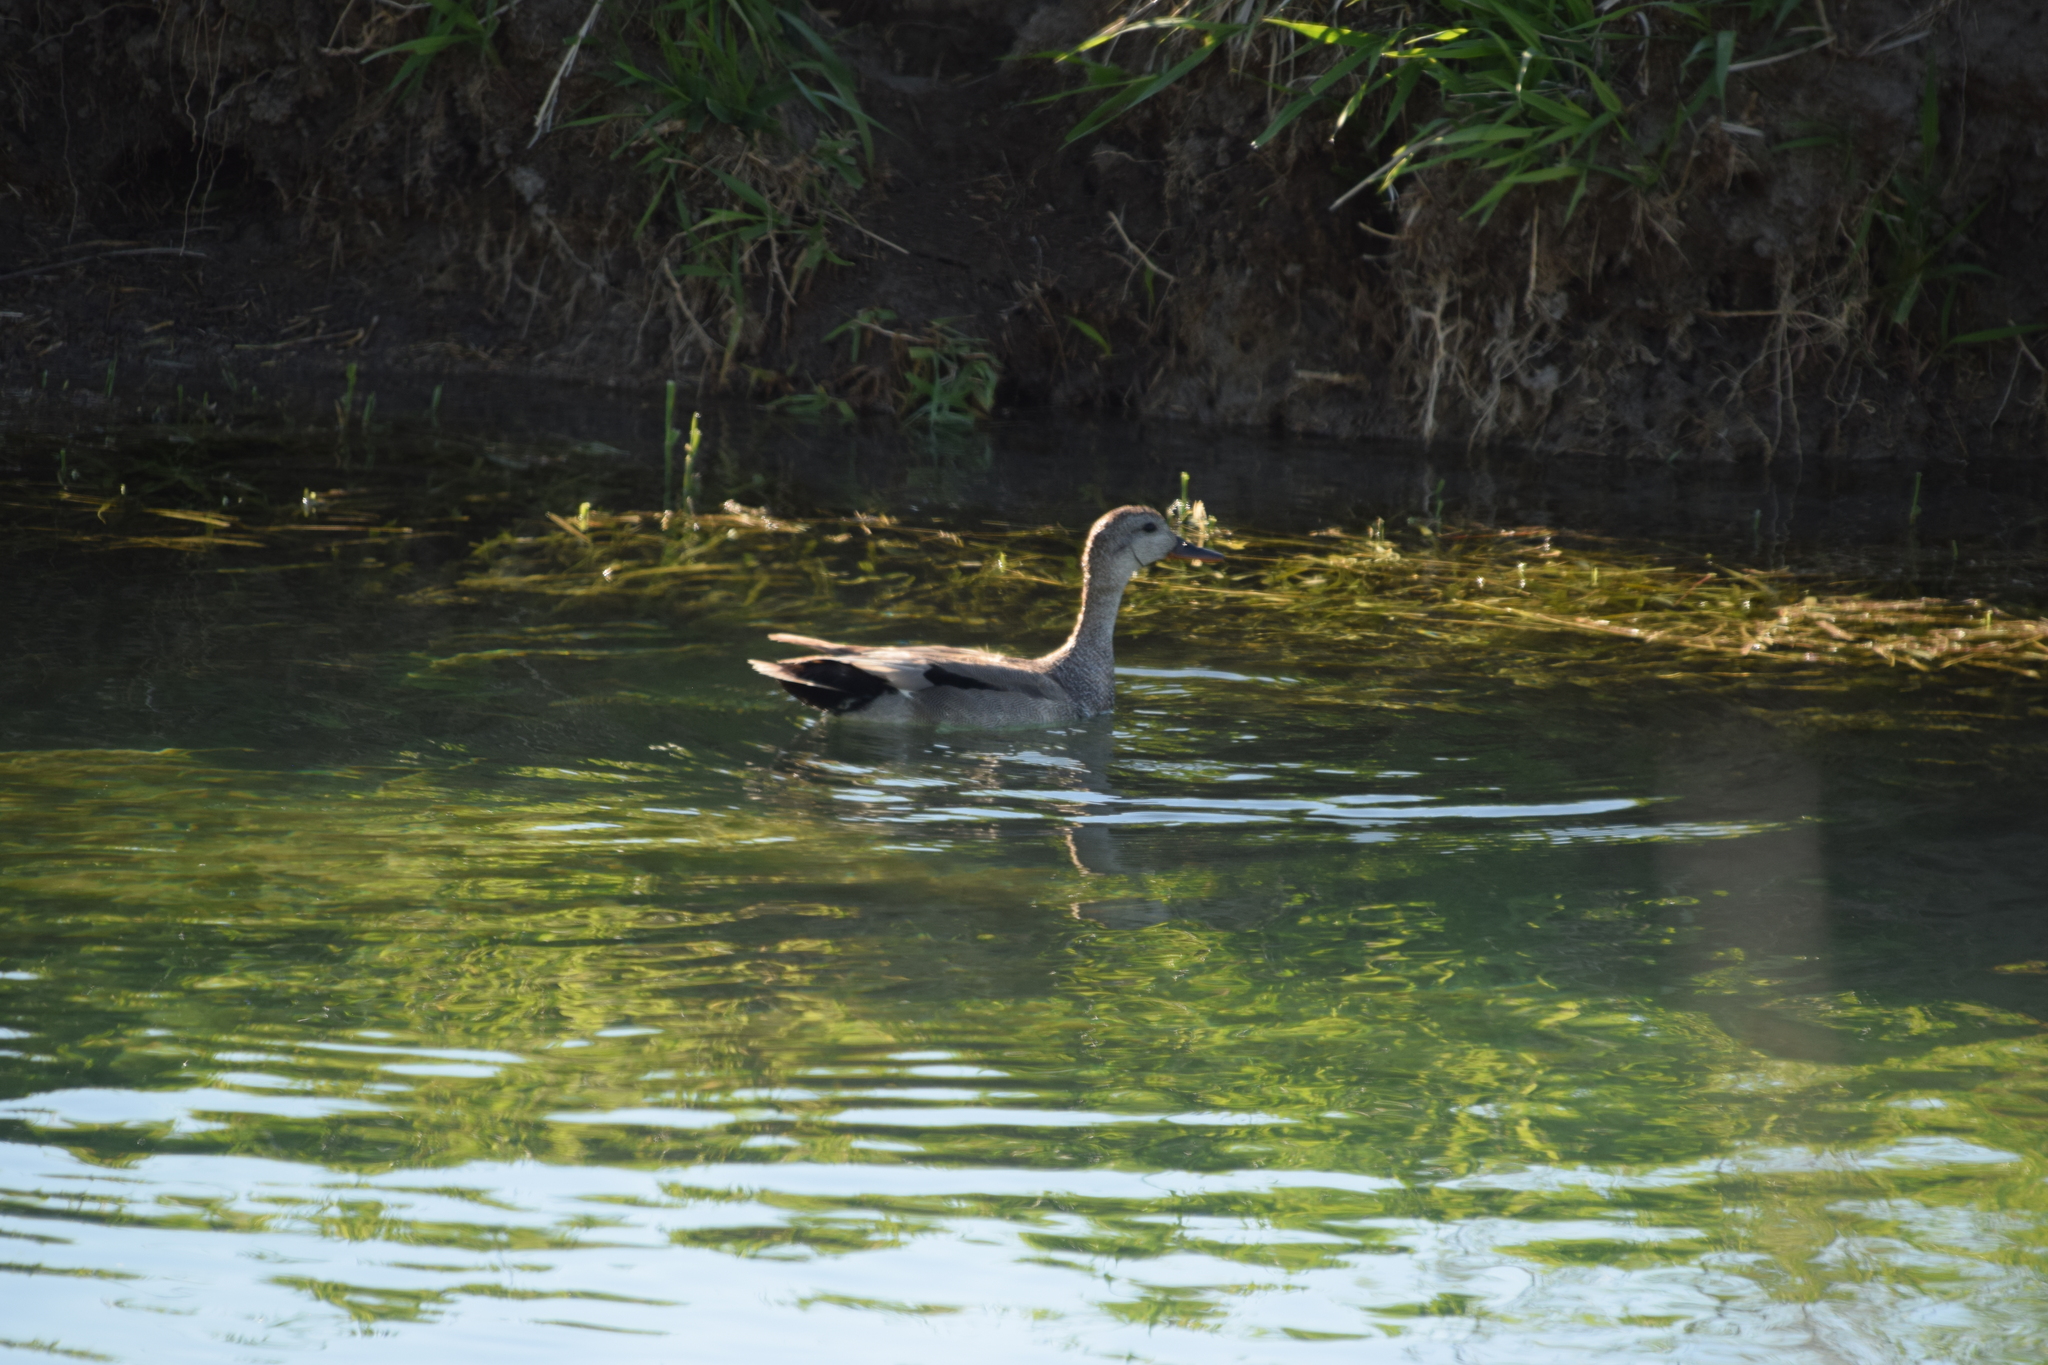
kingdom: Animalia
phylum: Chordata
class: Aves
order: Anseriformes
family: Anatidae
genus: Mareca
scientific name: Mareca strepera
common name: Gadwall
